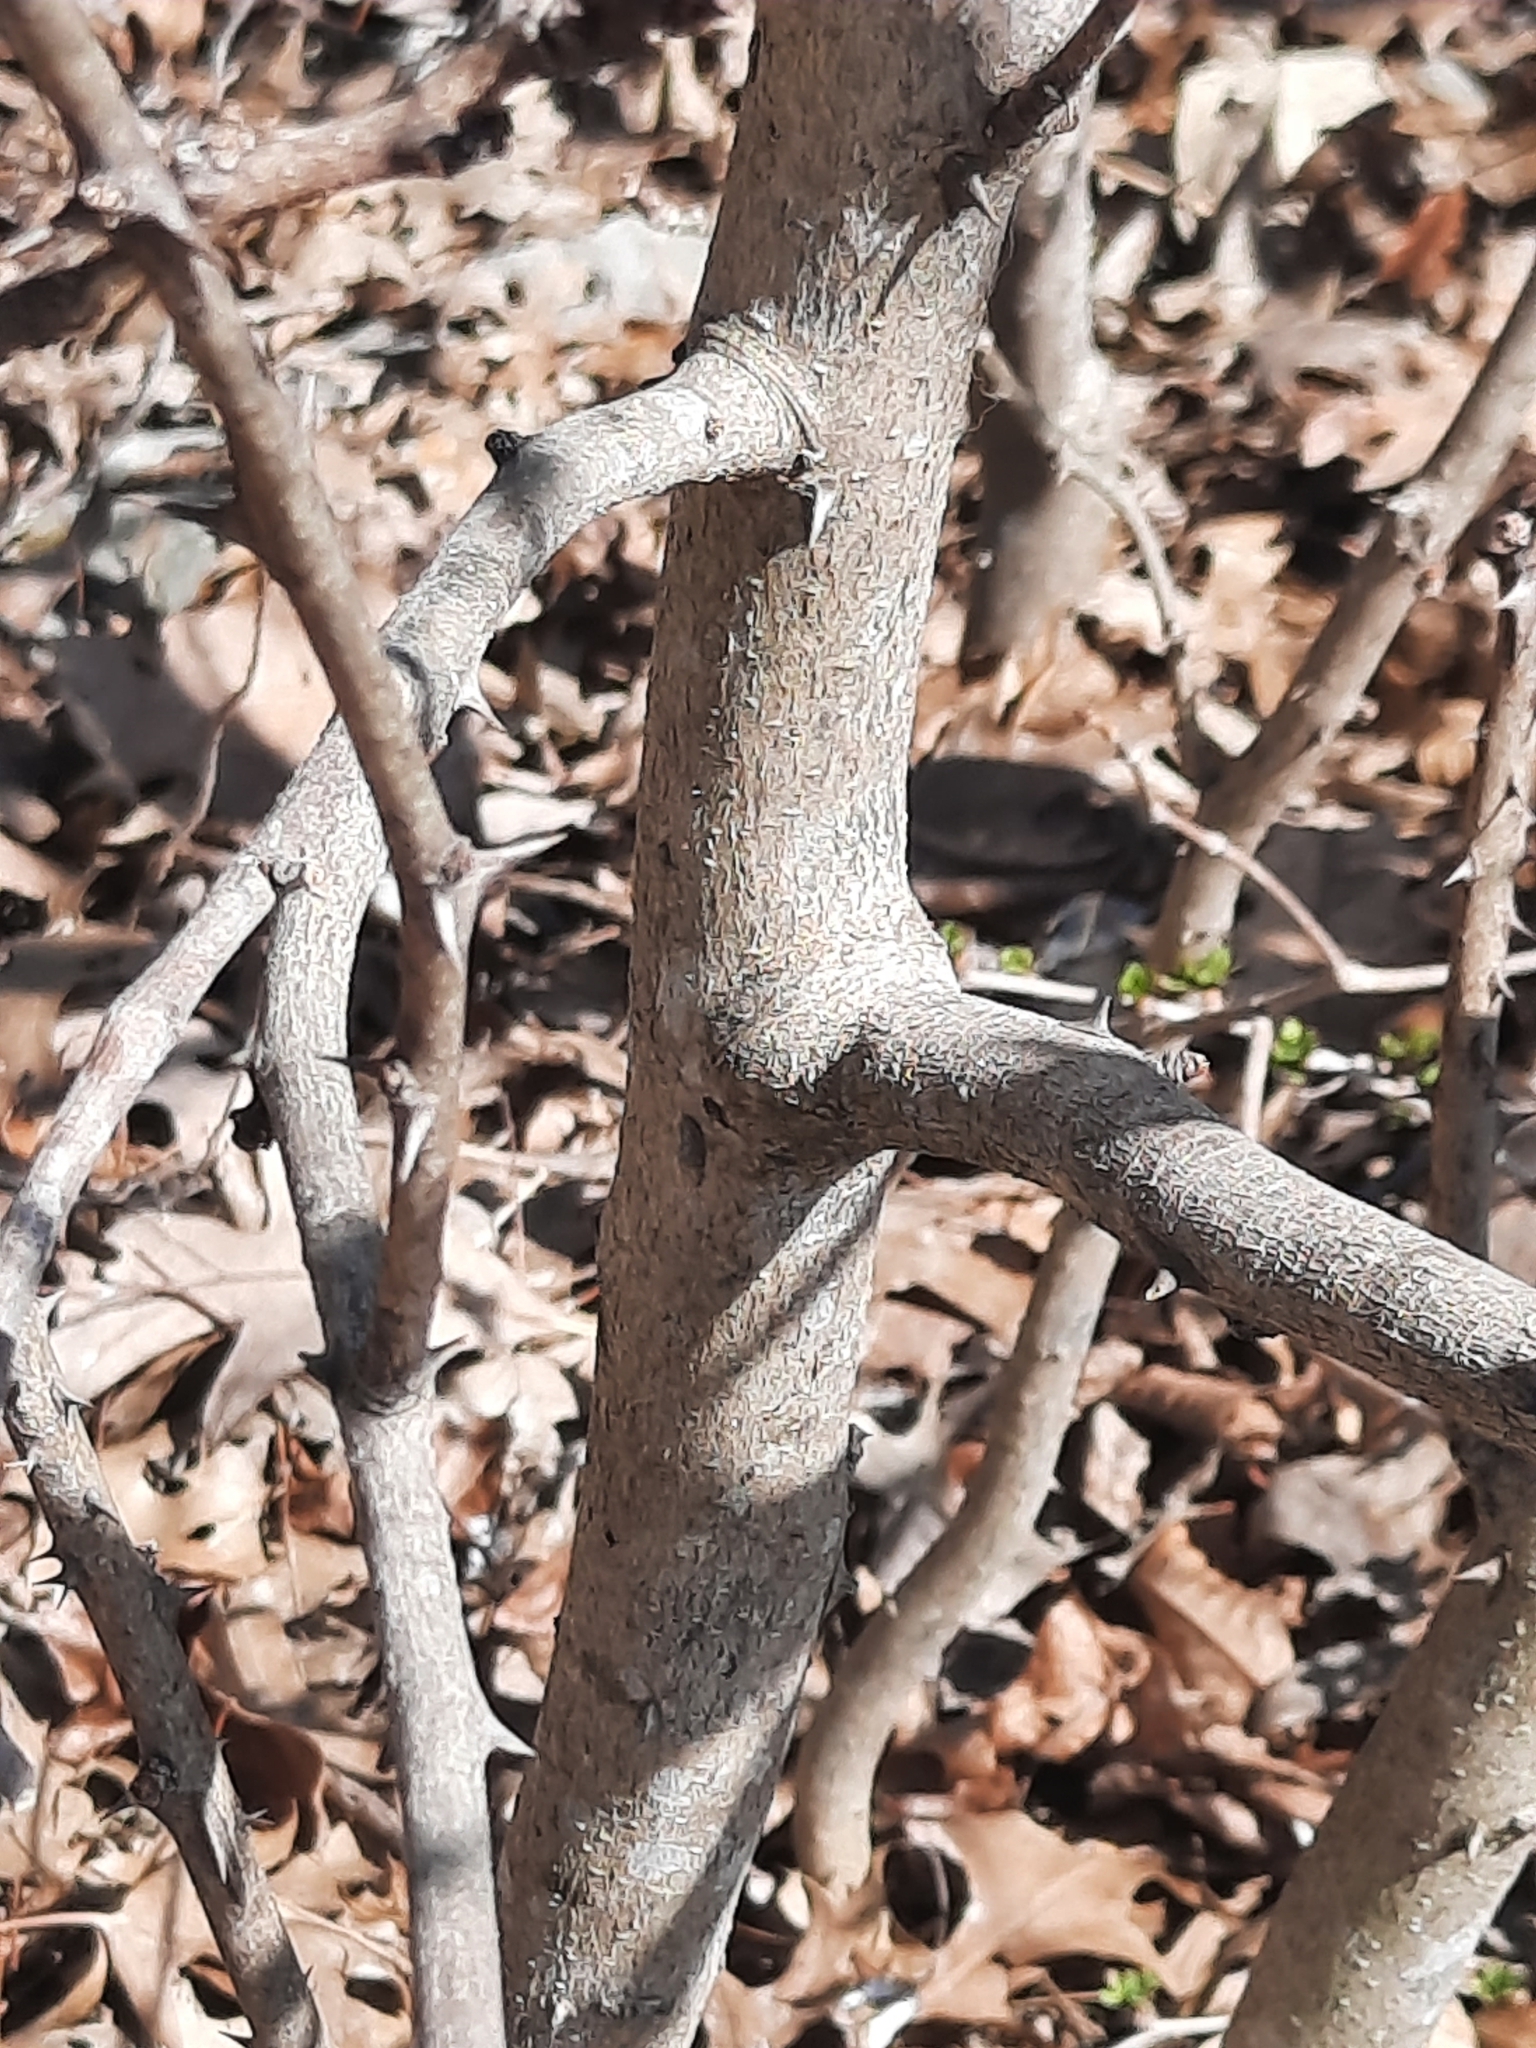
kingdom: Plantae
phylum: Tracheophyta
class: Magnoliopsida
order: Sapindales
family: Rutaceae
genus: Zanthoxylum
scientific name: Zanthoxylum americanum
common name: Northern prickly-ash
